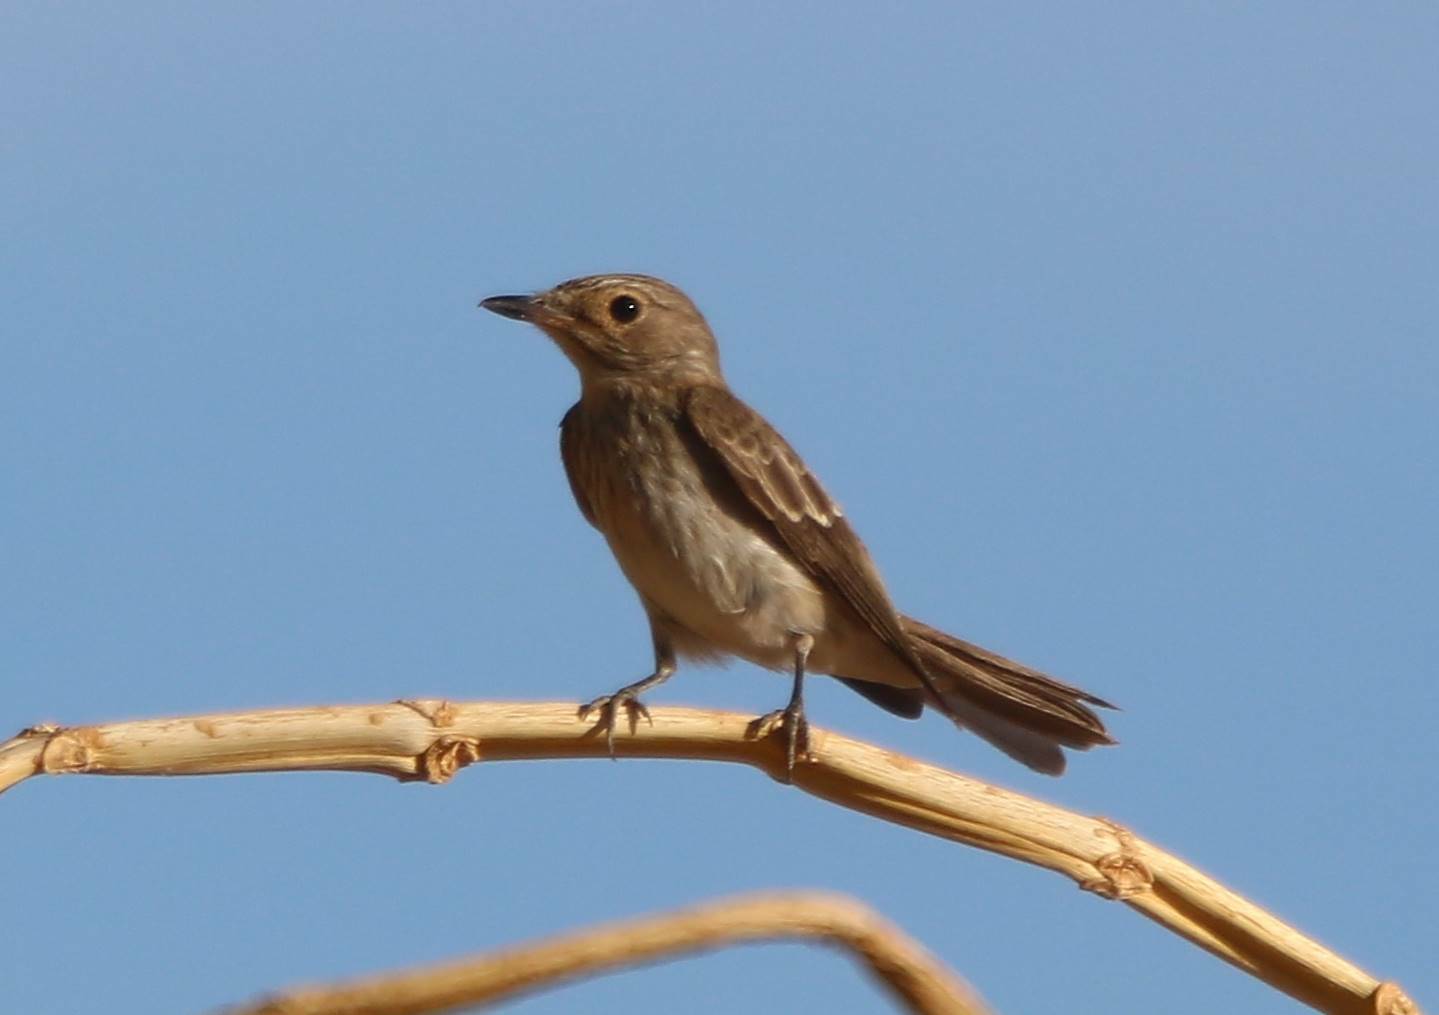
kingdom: Animalia
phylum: Chordata
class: Aves
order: Passeriformes
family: Muscicapidae
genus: Muscicapa
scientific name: Muscicapa striata
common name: Spotted flycatcher
